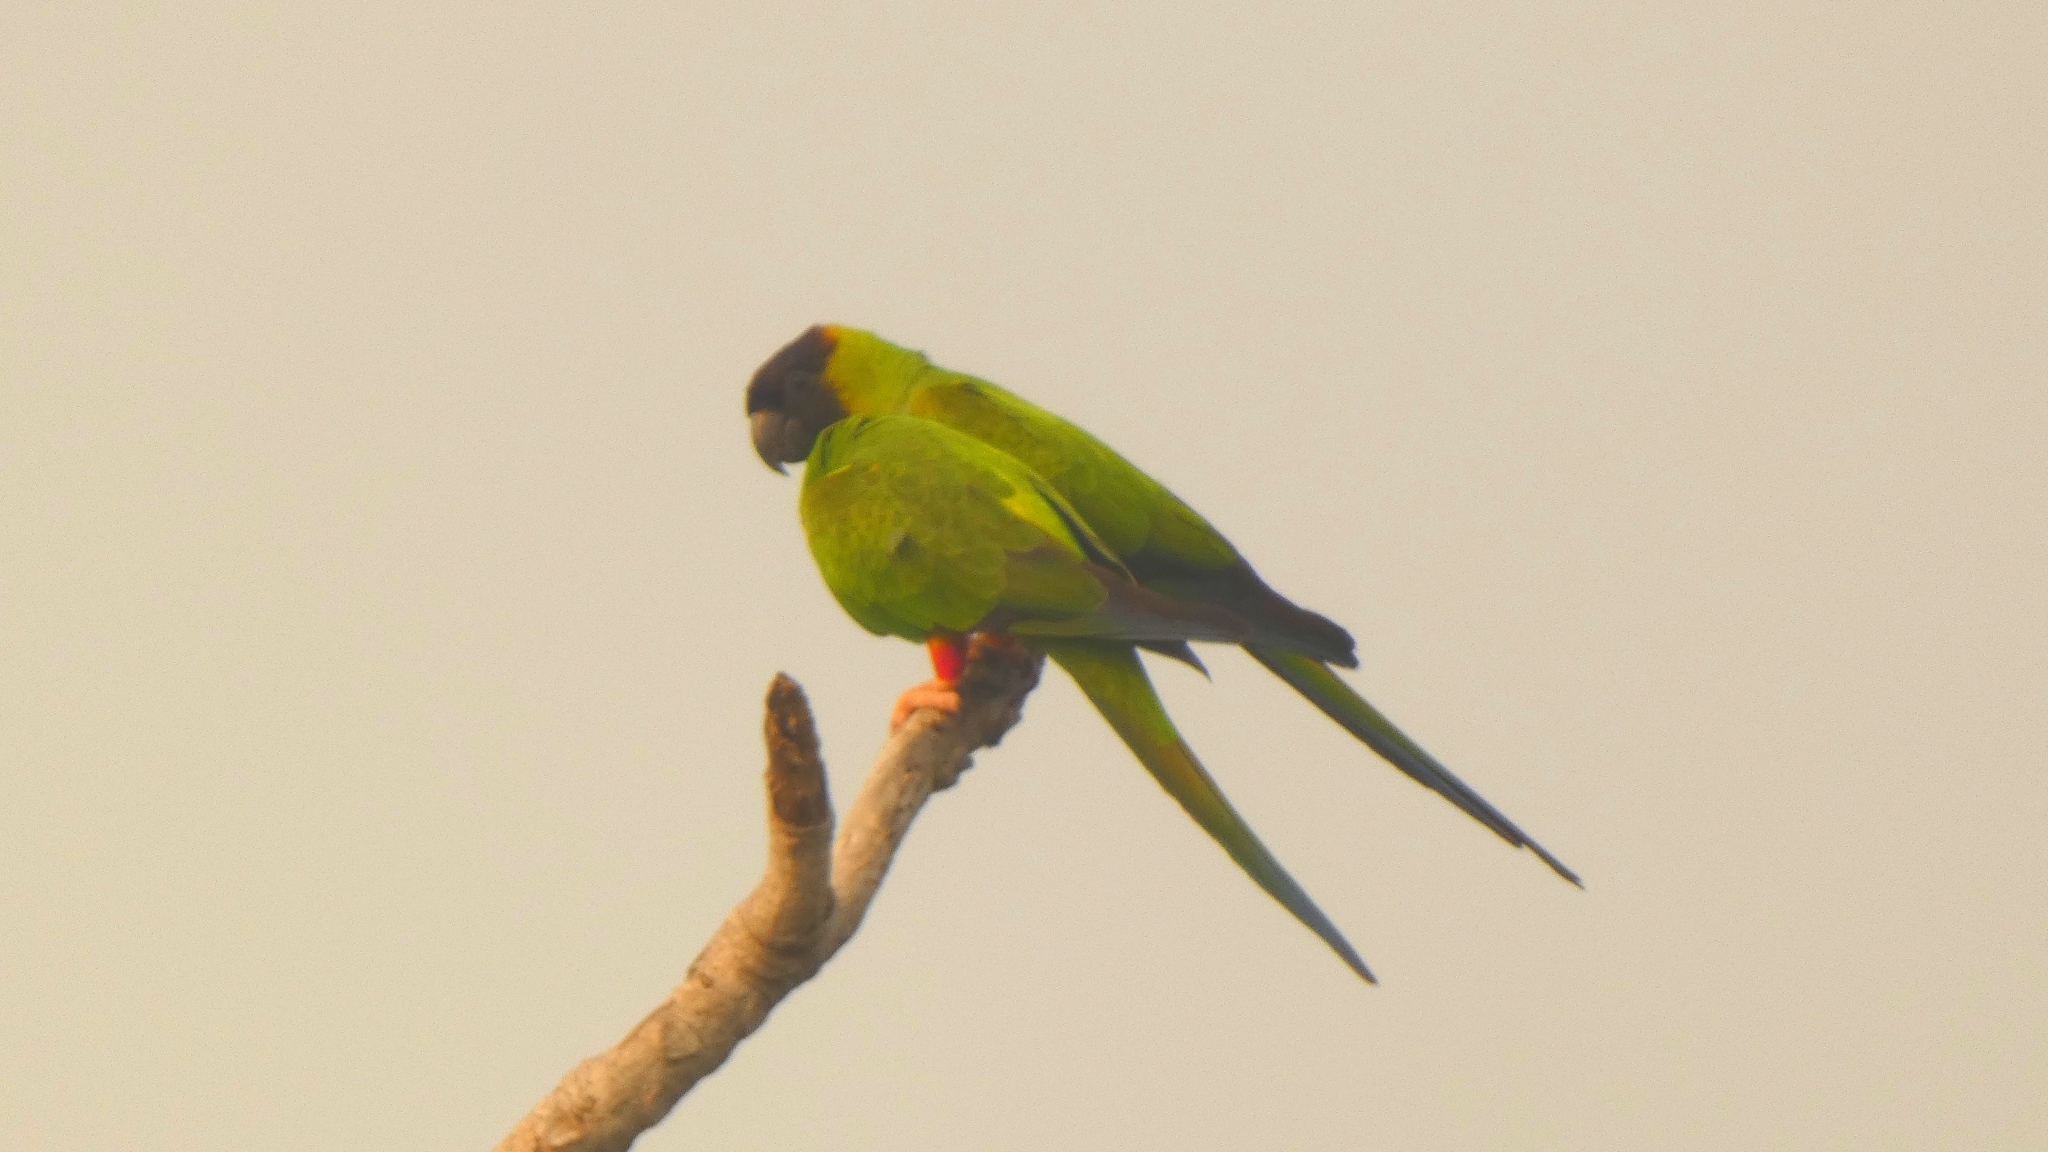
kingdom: Animalia
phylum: Chordata
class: Aves
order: Psittaciformes
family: Psittacidae
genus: Nandayus
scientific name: Nandayus nenday
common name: Nanday parakeet
